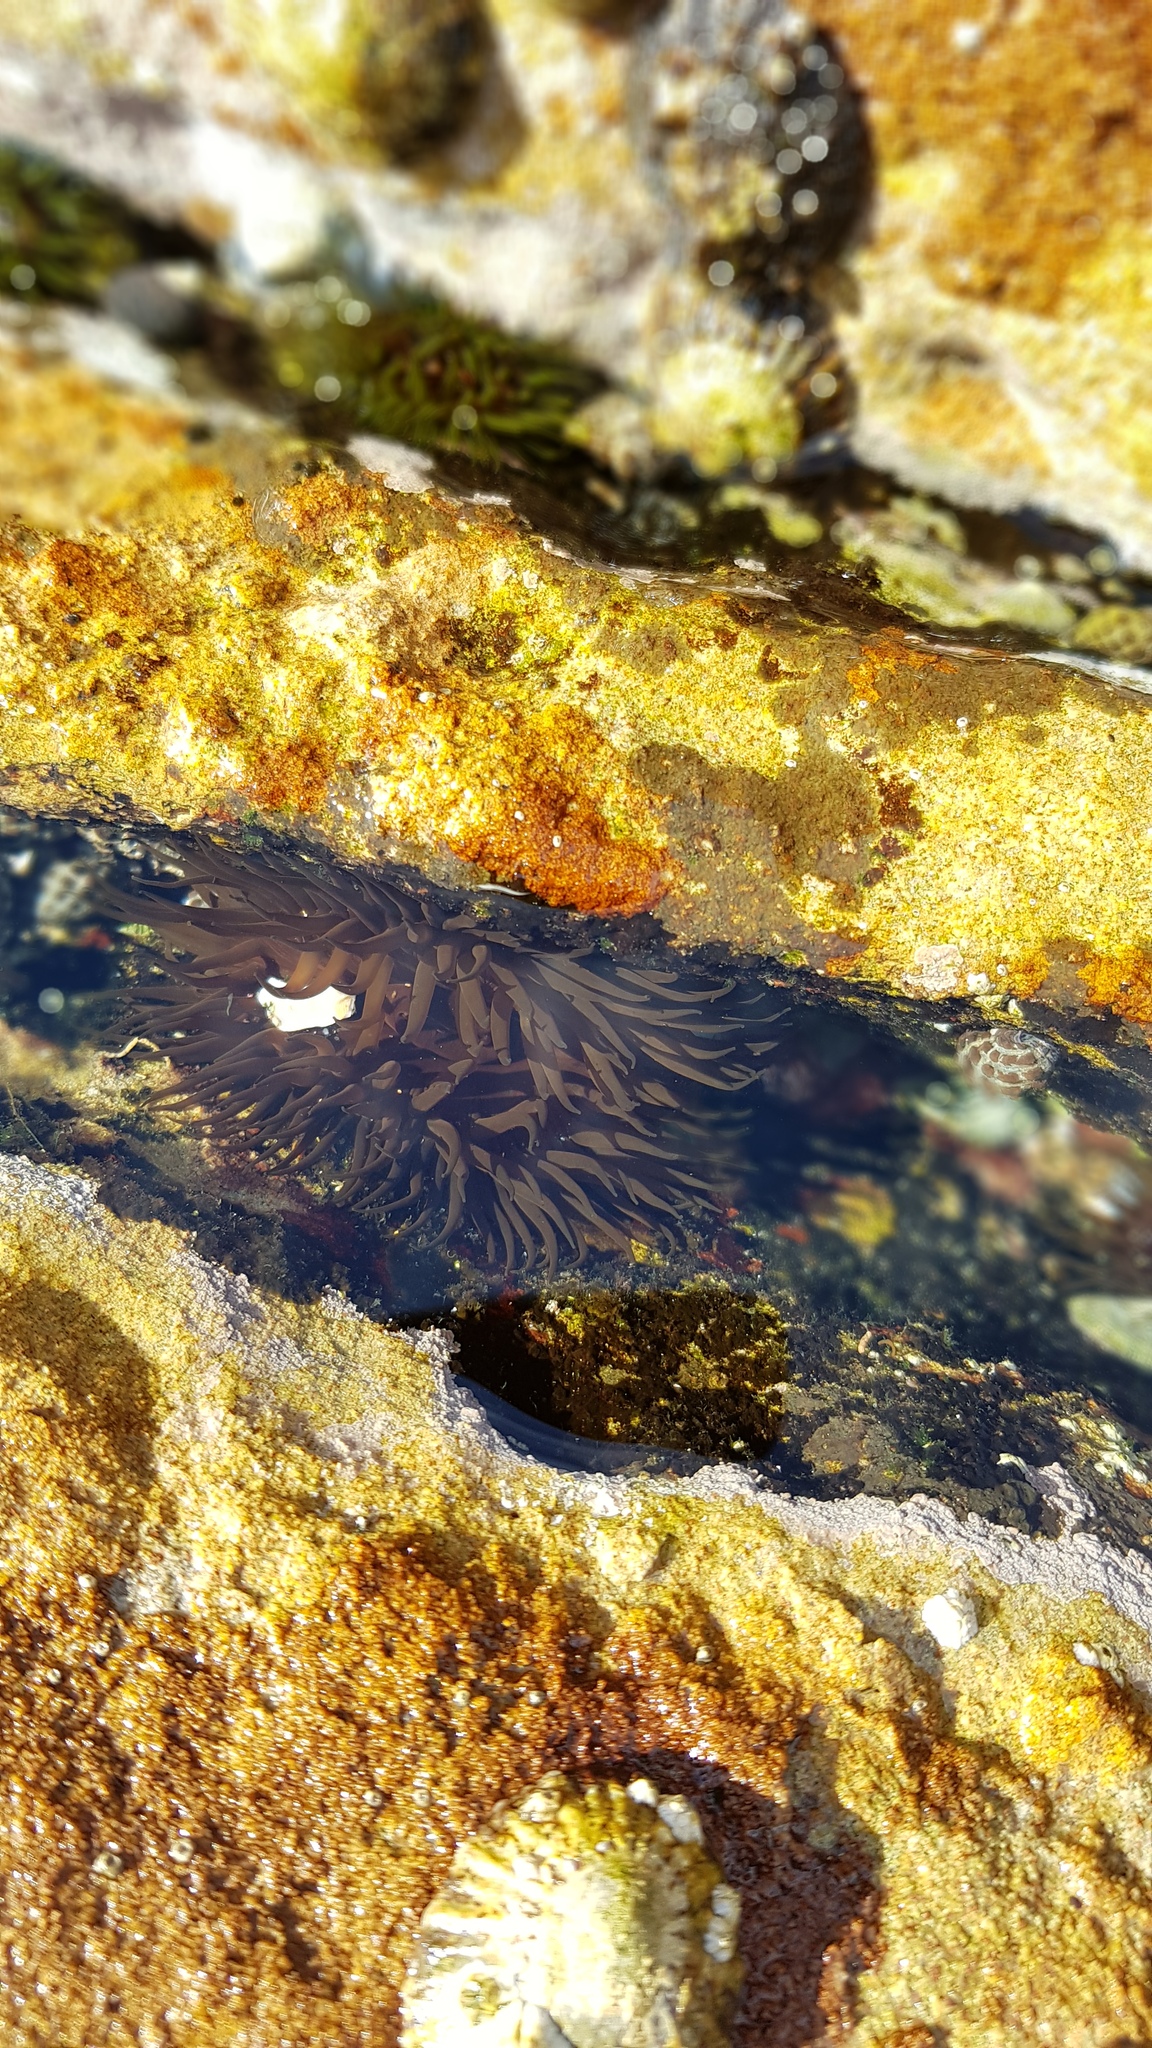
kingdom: Animalia
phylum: Cnidaria
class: Anthozoa
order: Actiniaria
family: Actiniidae
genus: Aulactinia
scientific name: Aulactinia veratra
